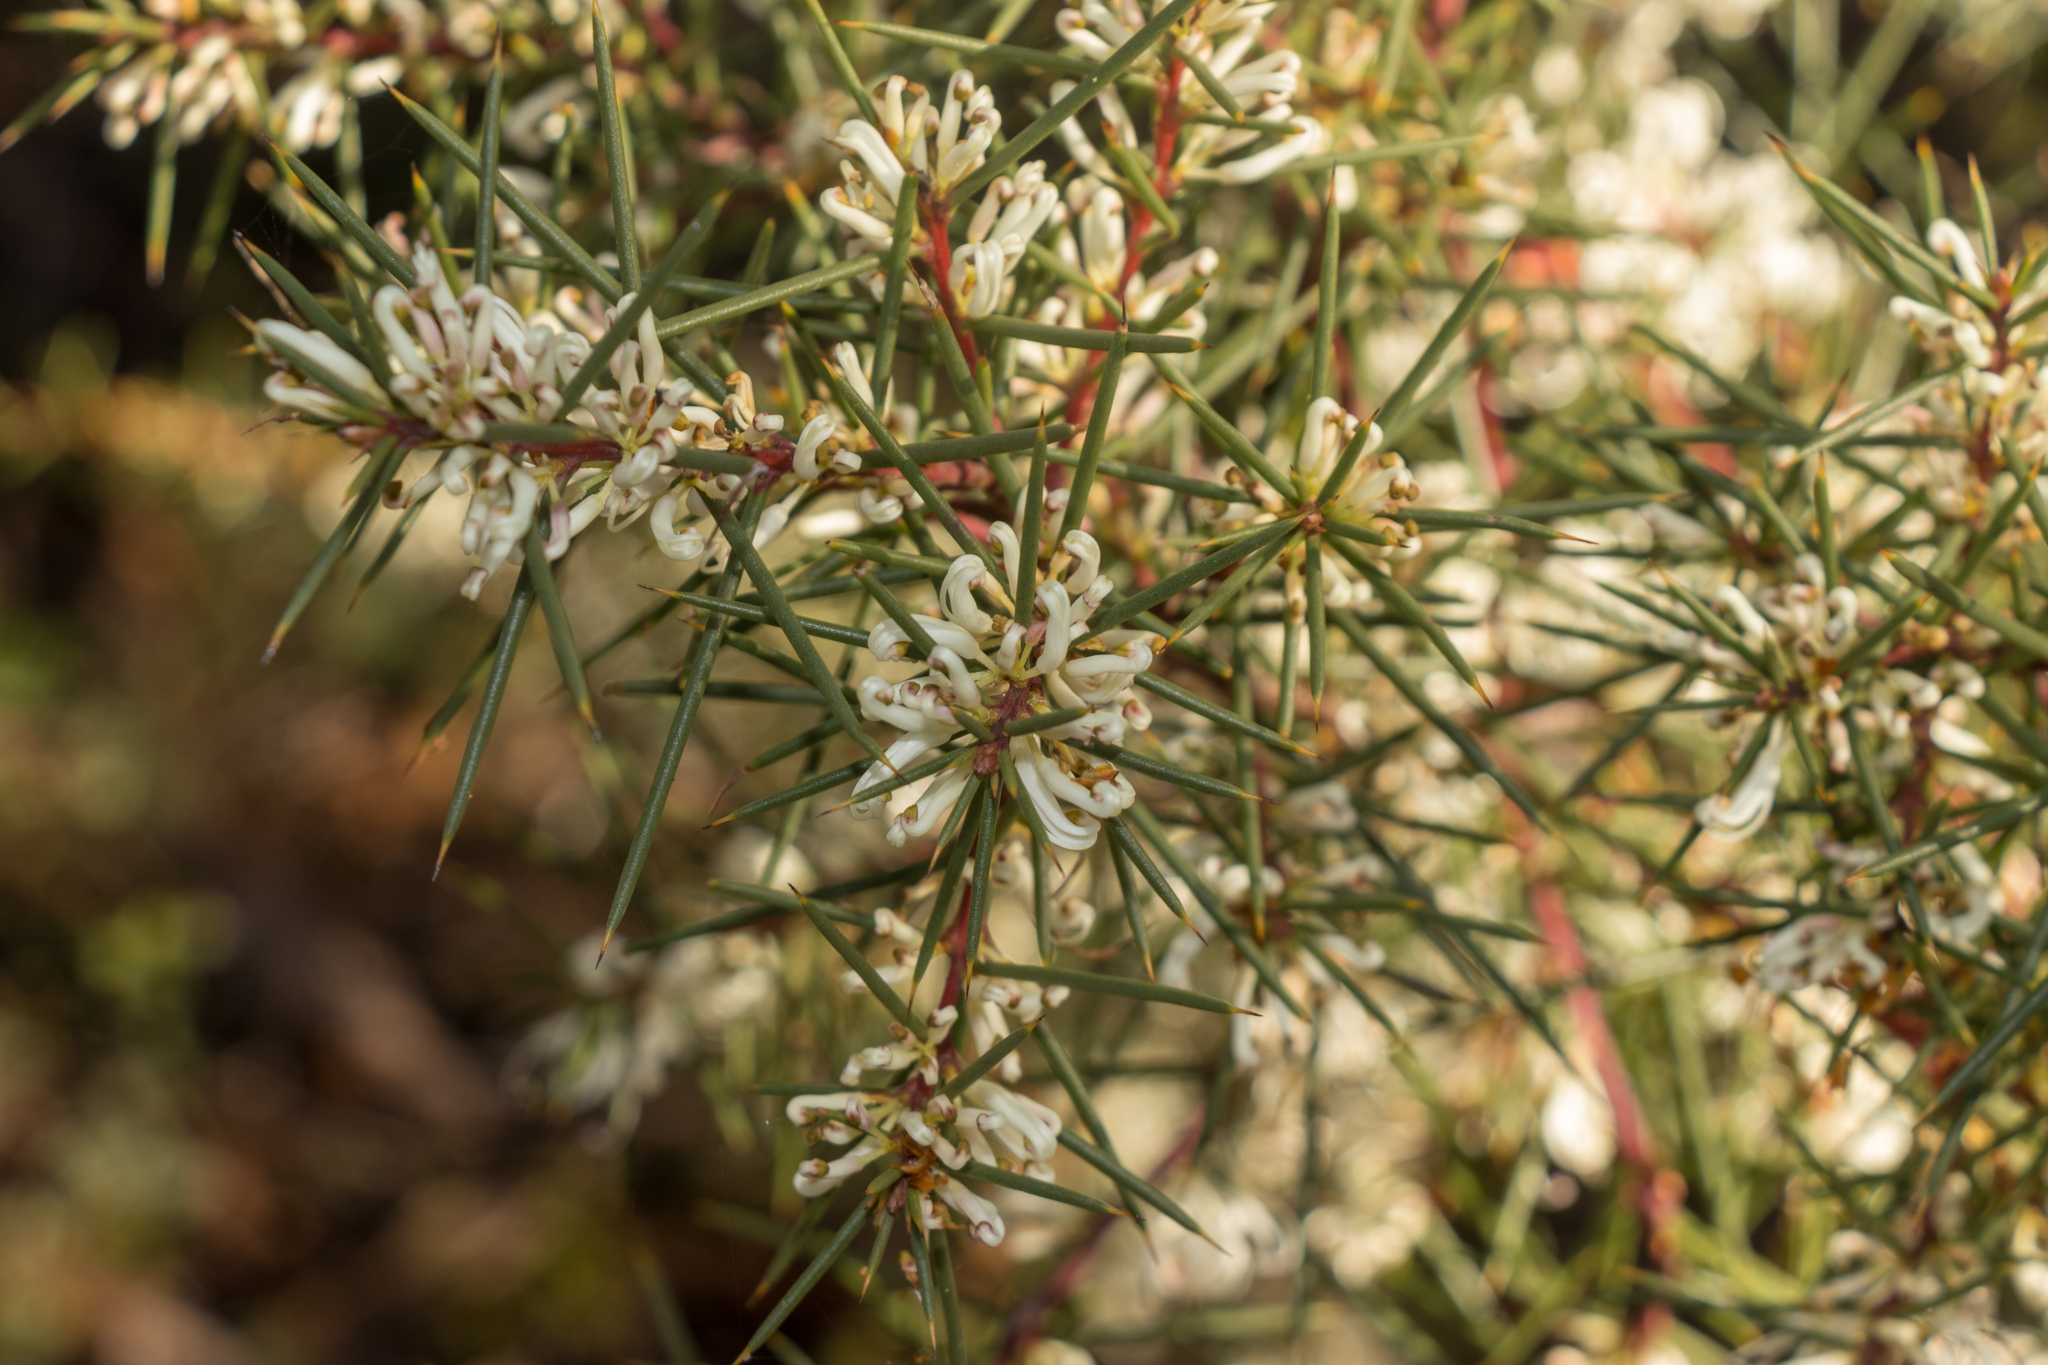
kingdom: Plantae
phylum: Tracheophyta
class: Magnoliopsida
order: Proteales
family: Proteaceae
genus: Hakea
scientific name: Hakea decurrens
